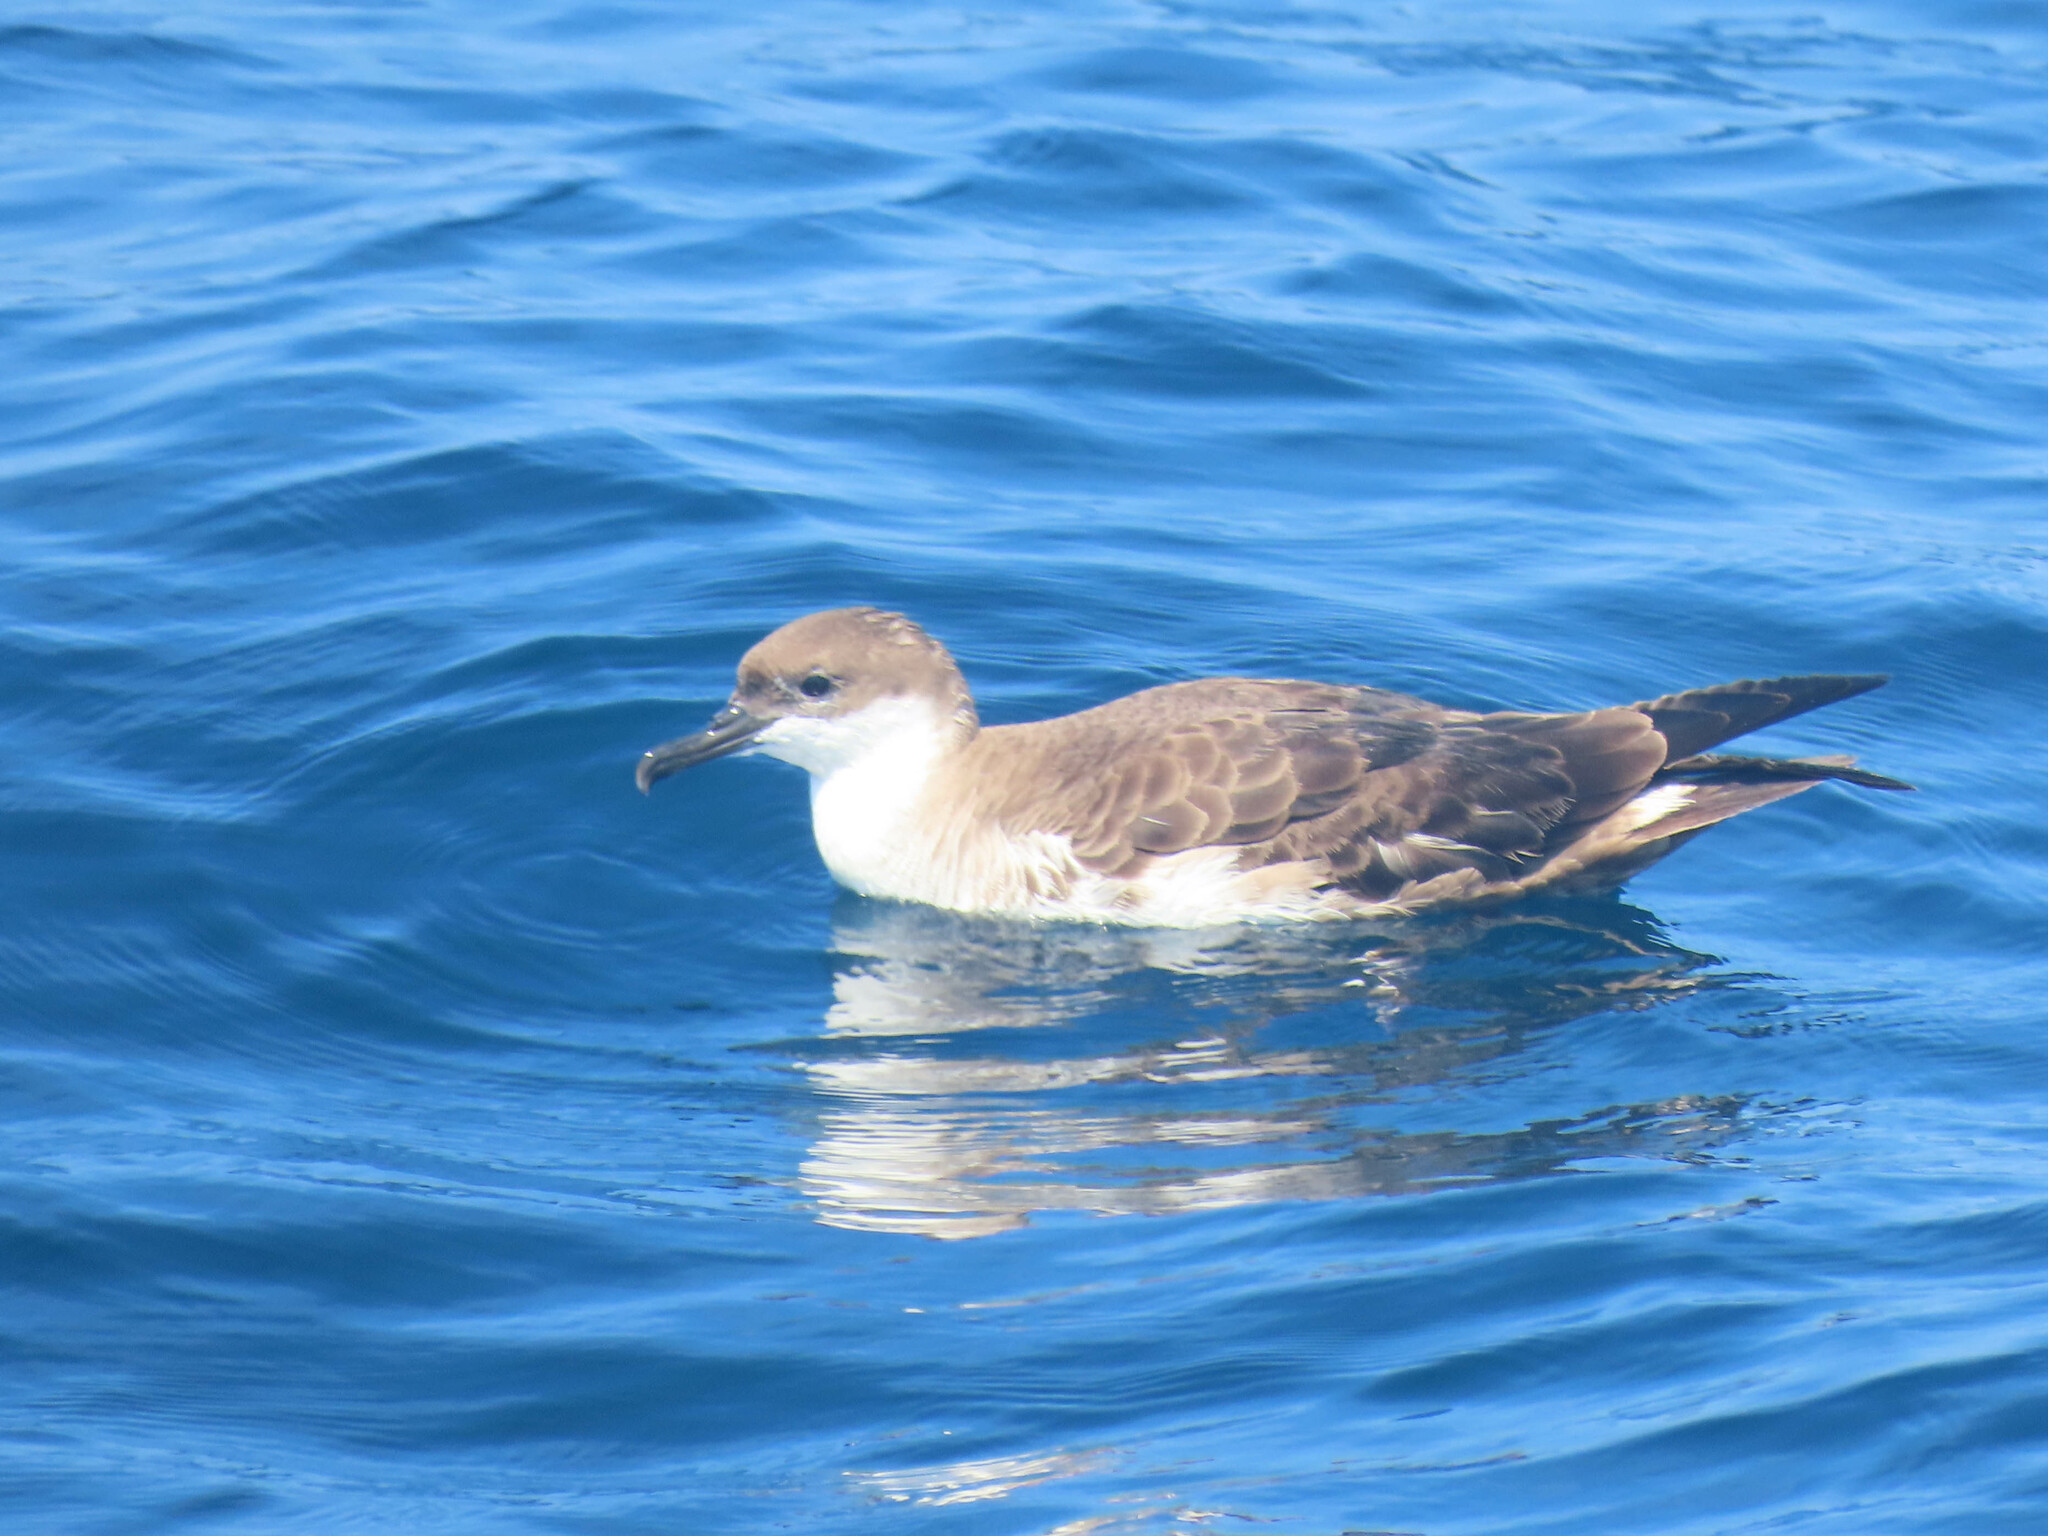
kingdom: Animalia
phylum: Chordata
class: Aves
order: Procellariiformes
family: Procellariidae
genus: Puffinus
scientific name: Puffinus gravis
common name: Great shearwater
